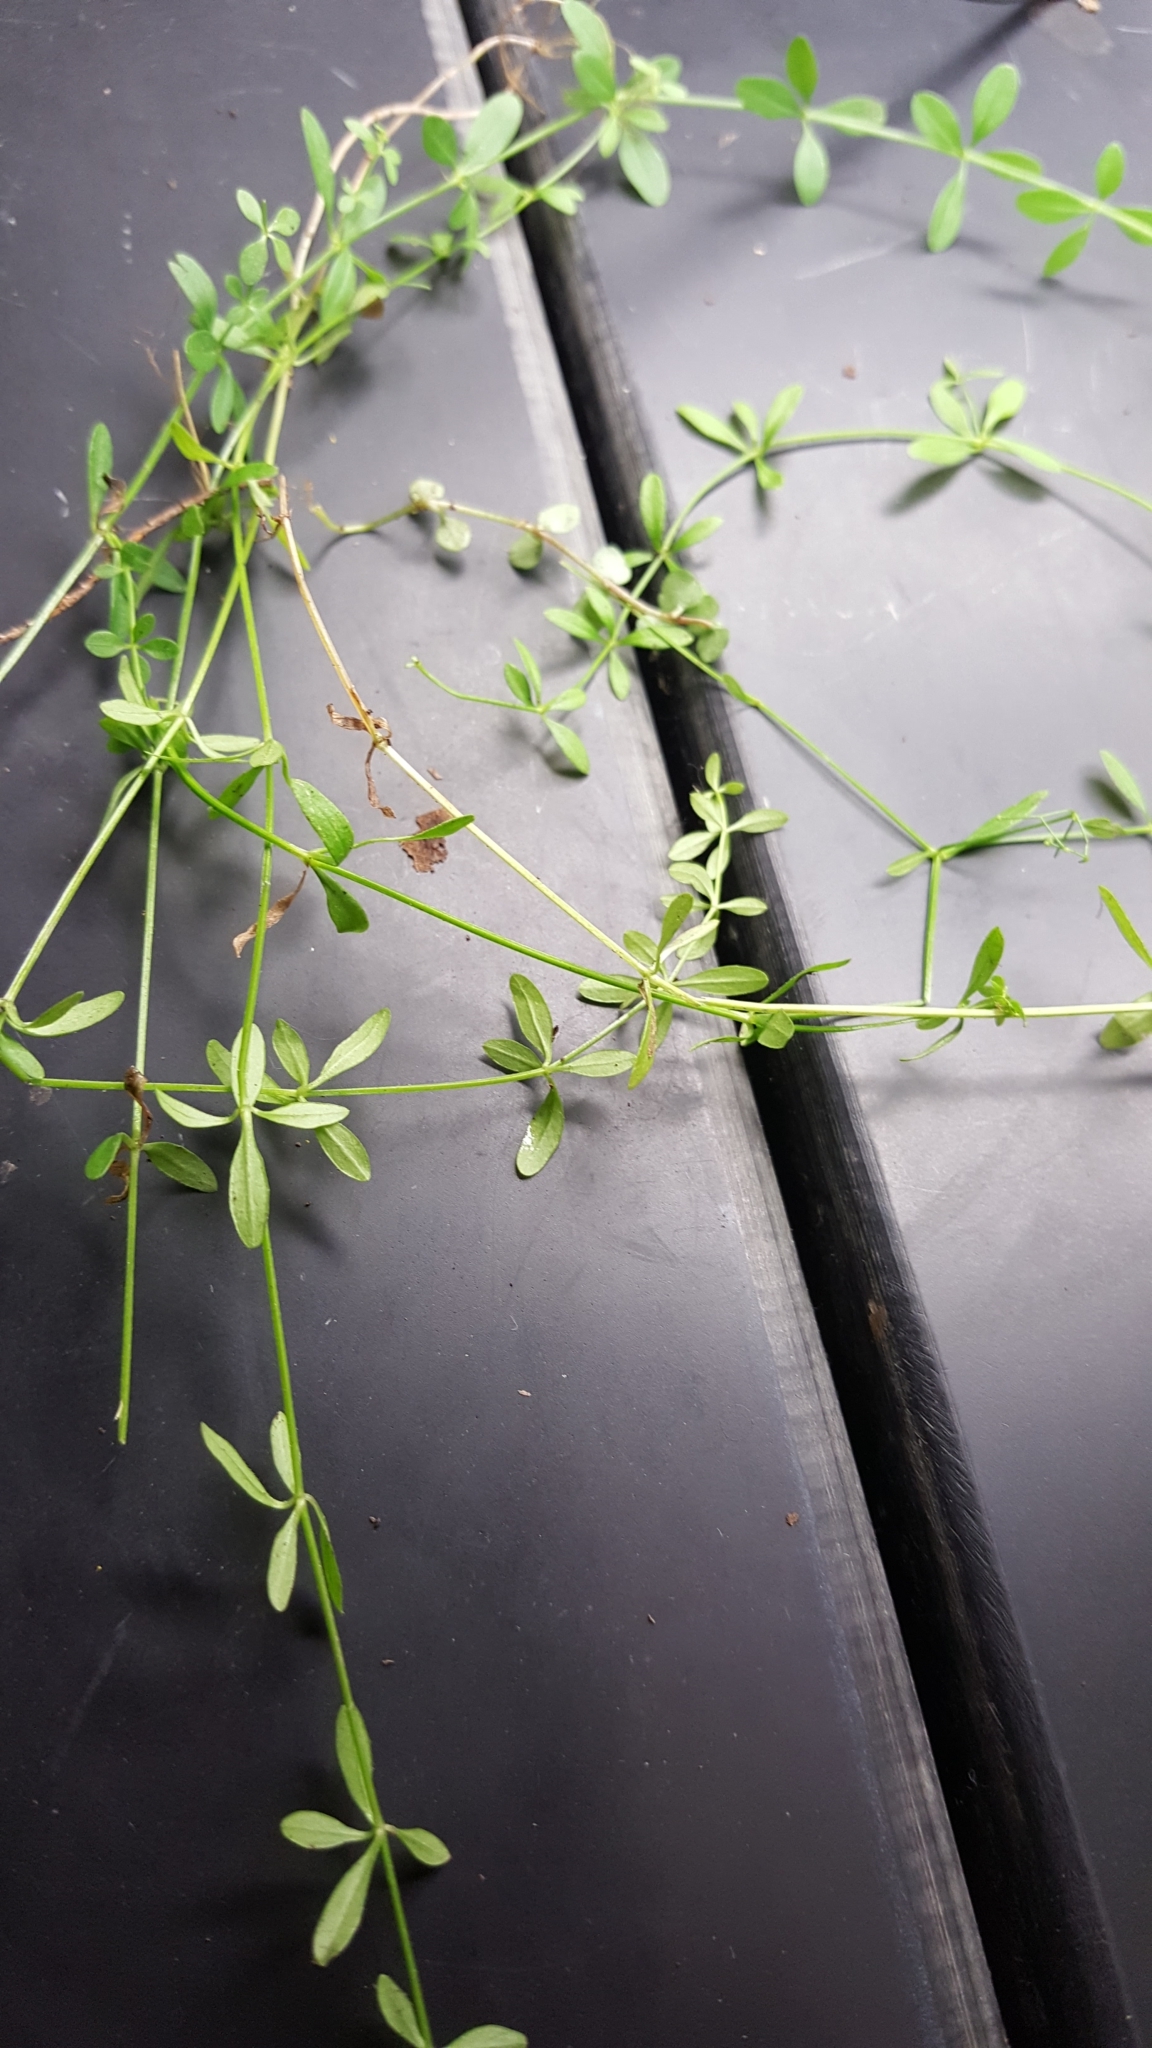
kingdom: Plantae
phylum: Tracheophyta
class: Magnoliopsida
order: Gentianales
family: Rubiaceae
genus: Galium
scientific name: Galium palustre
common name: Common marsh-bedstraw
